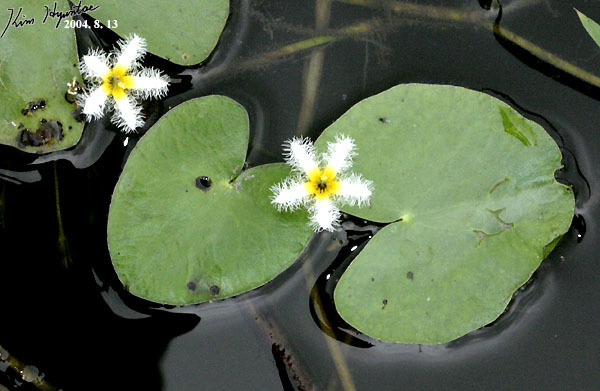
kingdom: Plantae
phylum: Tracheophyta
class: Magnoliopsida
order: Asterales
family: Menyanthaceae
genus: Nymphoides
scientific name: Nymphoides indica
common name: Water-snowflake
